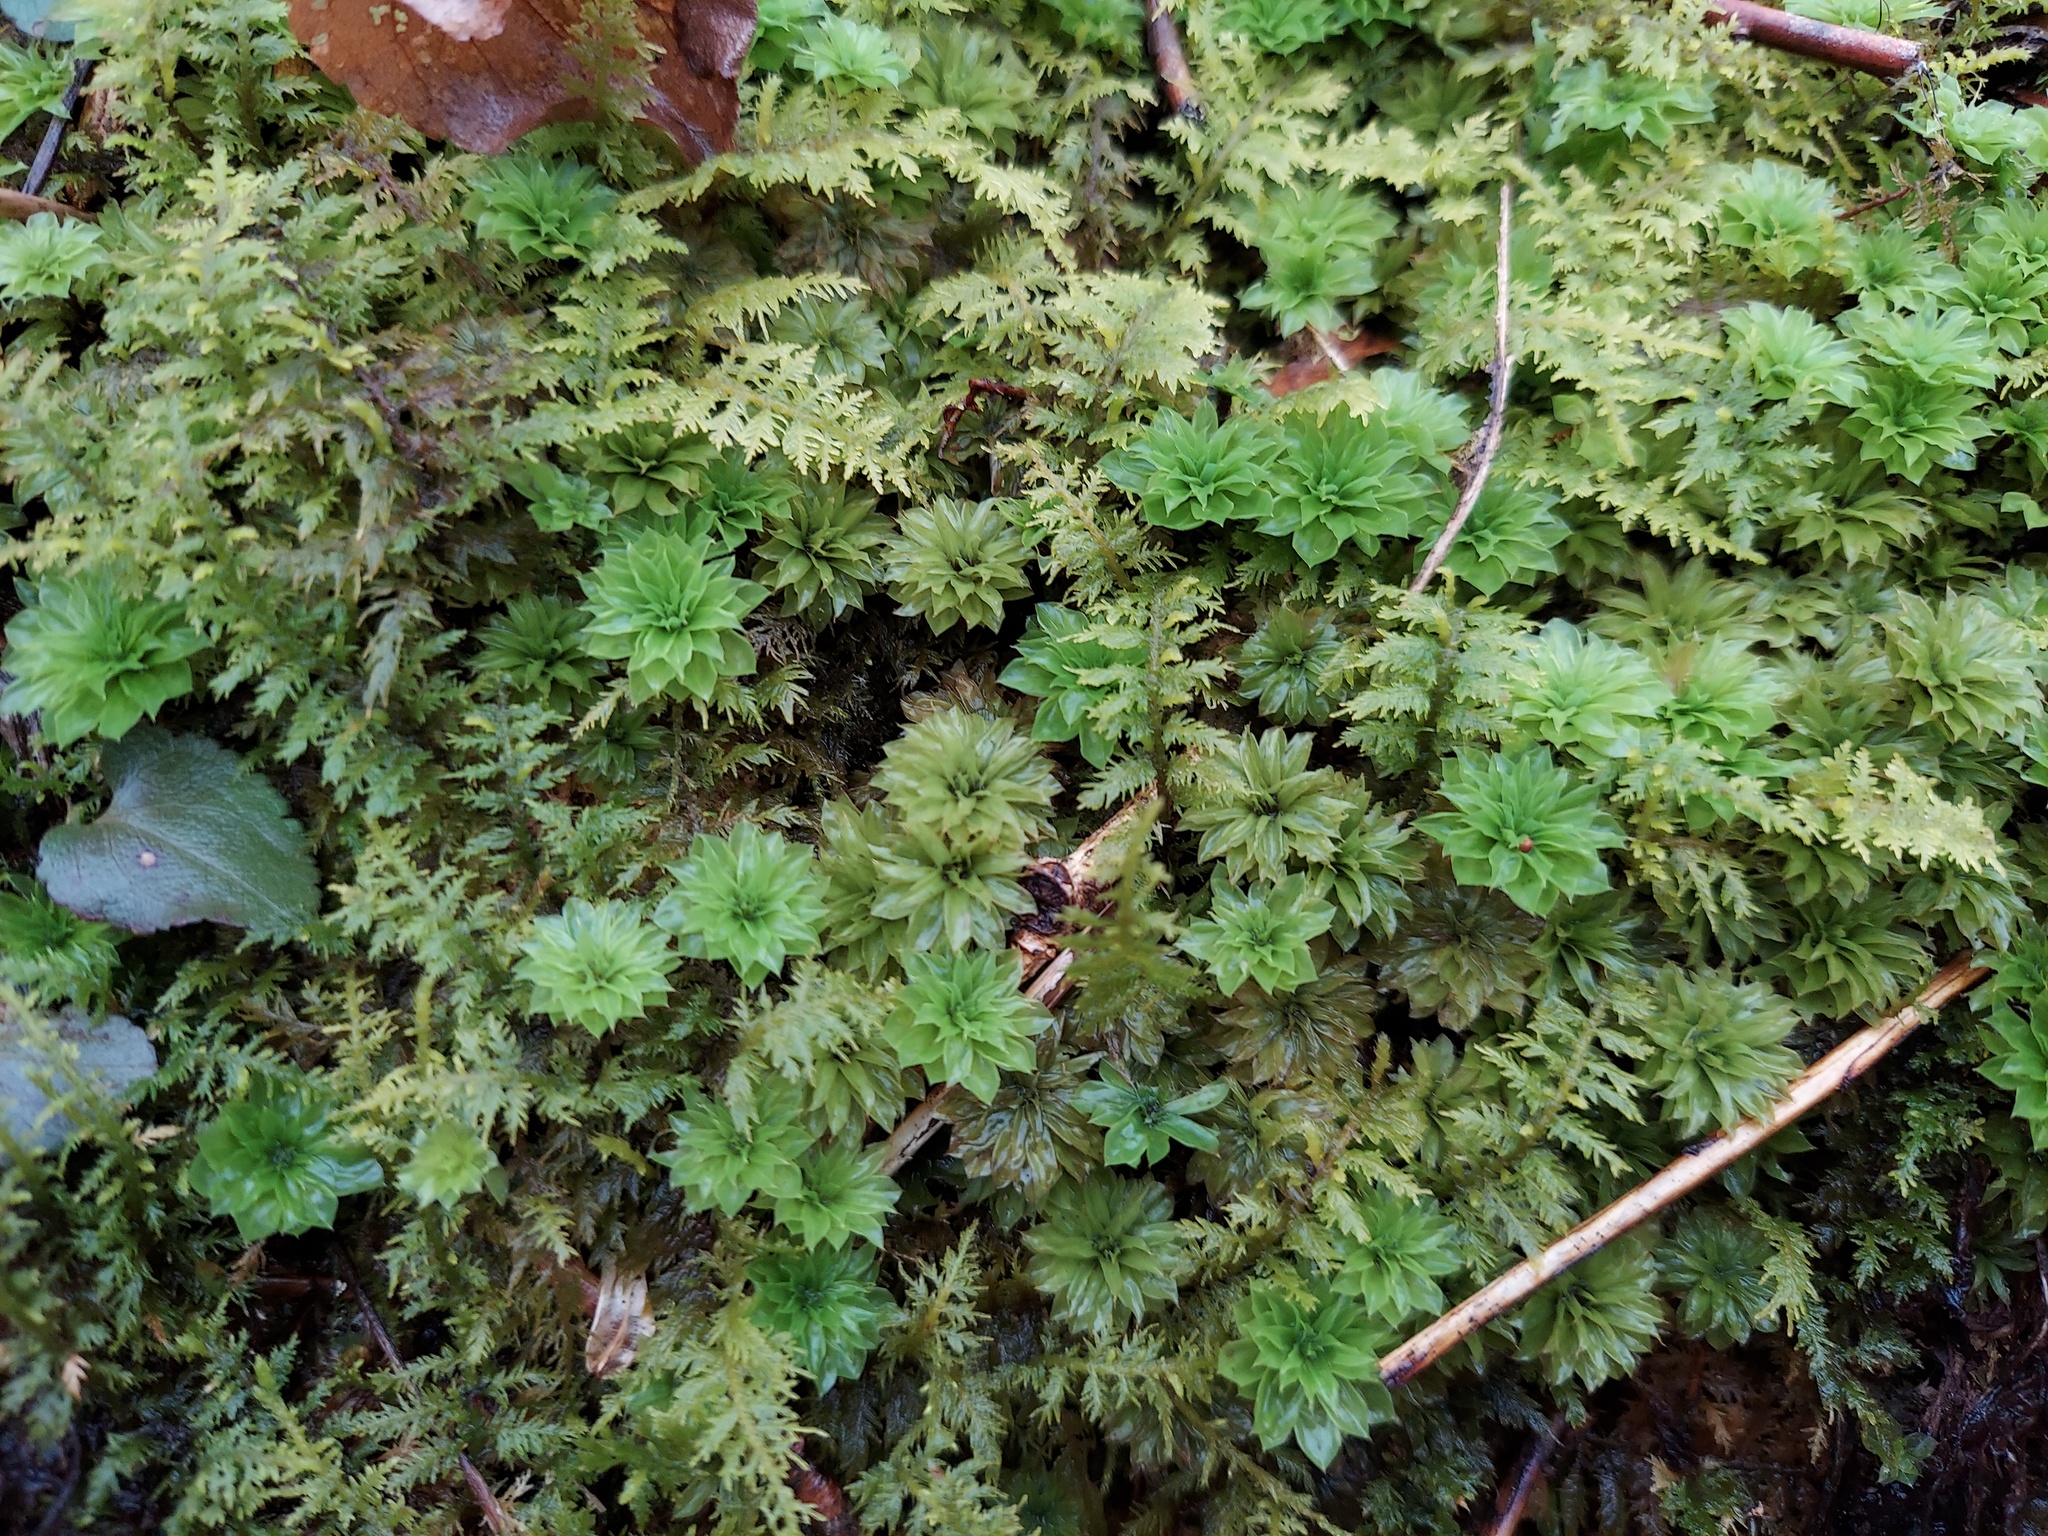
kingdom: Plantae
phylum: Bryophyta
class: Bryopsida
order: Bryales
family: Bryaceae
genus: Rhodobryum
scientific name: Rhodobryum ontariense
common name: Ontario rhodobryum moss
